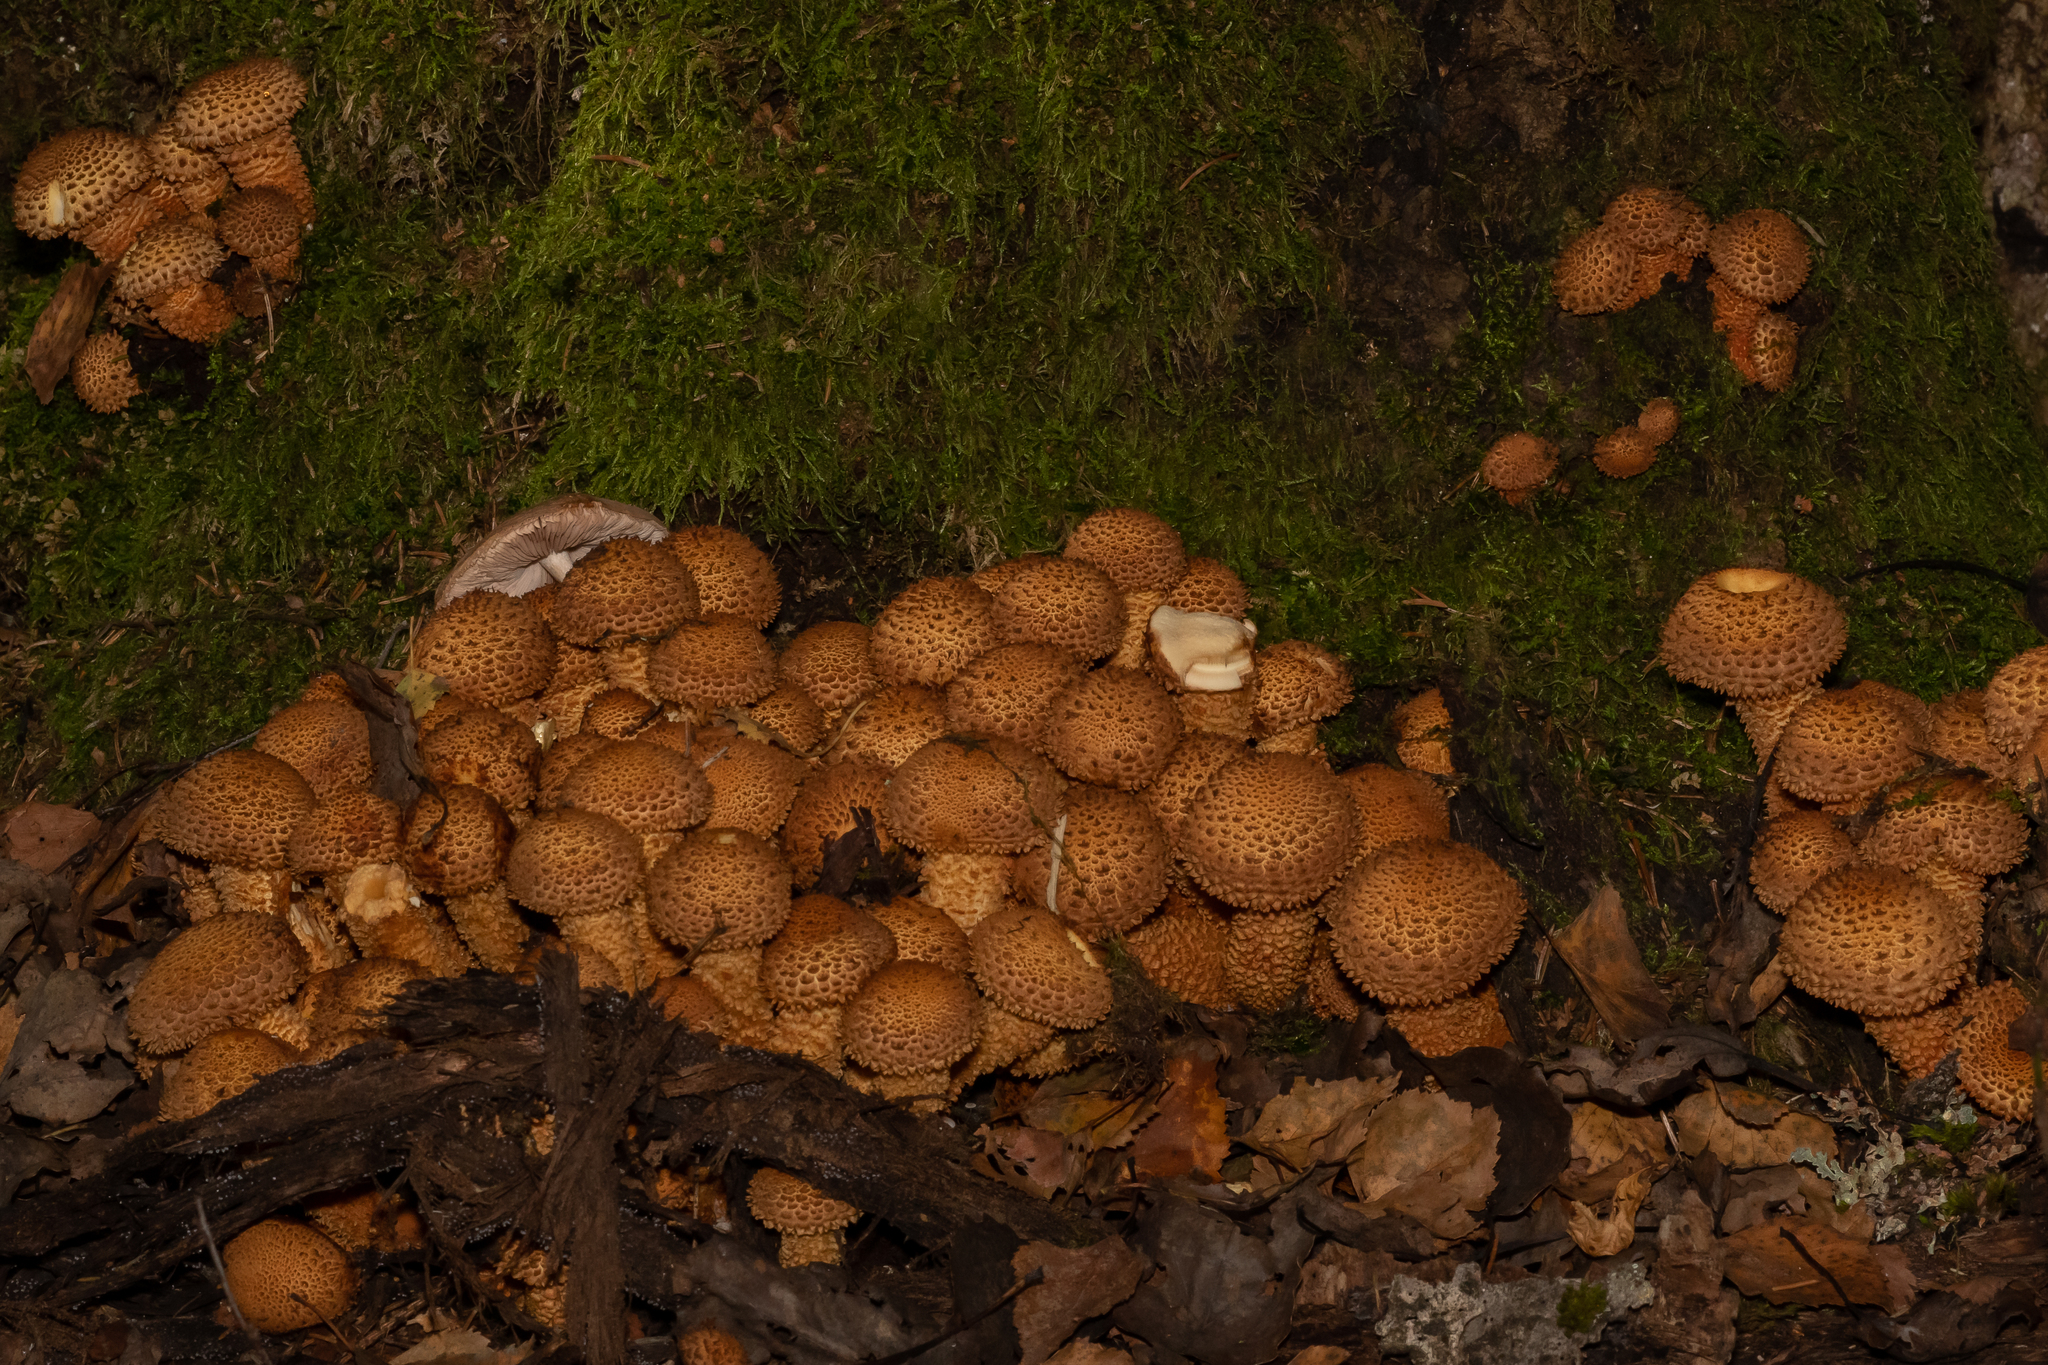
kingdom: Fungi
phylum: Basidiomycota
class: Agaricomycetes
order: Agaricales
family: Strophariaceae
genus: Pholiota
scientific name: Pholiota squarrosa
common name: Shaggy pholiota
